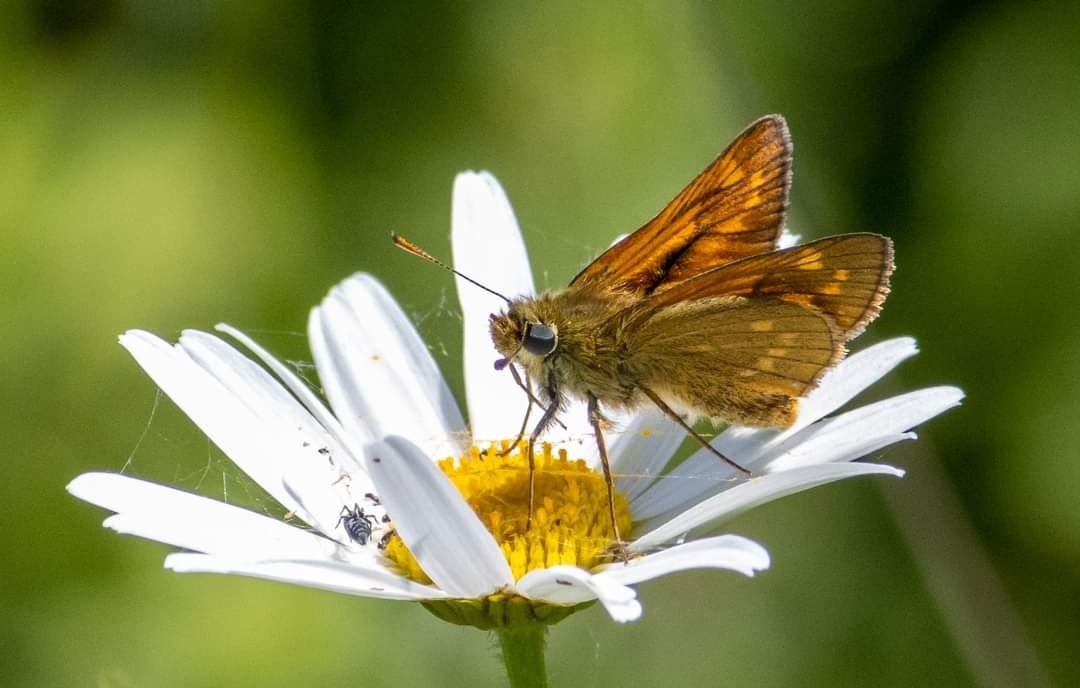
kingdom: Animalia
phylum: Arthropoda
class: Insecta
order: Lepidoptera
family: Hesperiidae
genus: Ochlodes
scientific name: Ochlodes venata
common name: Large skipper
